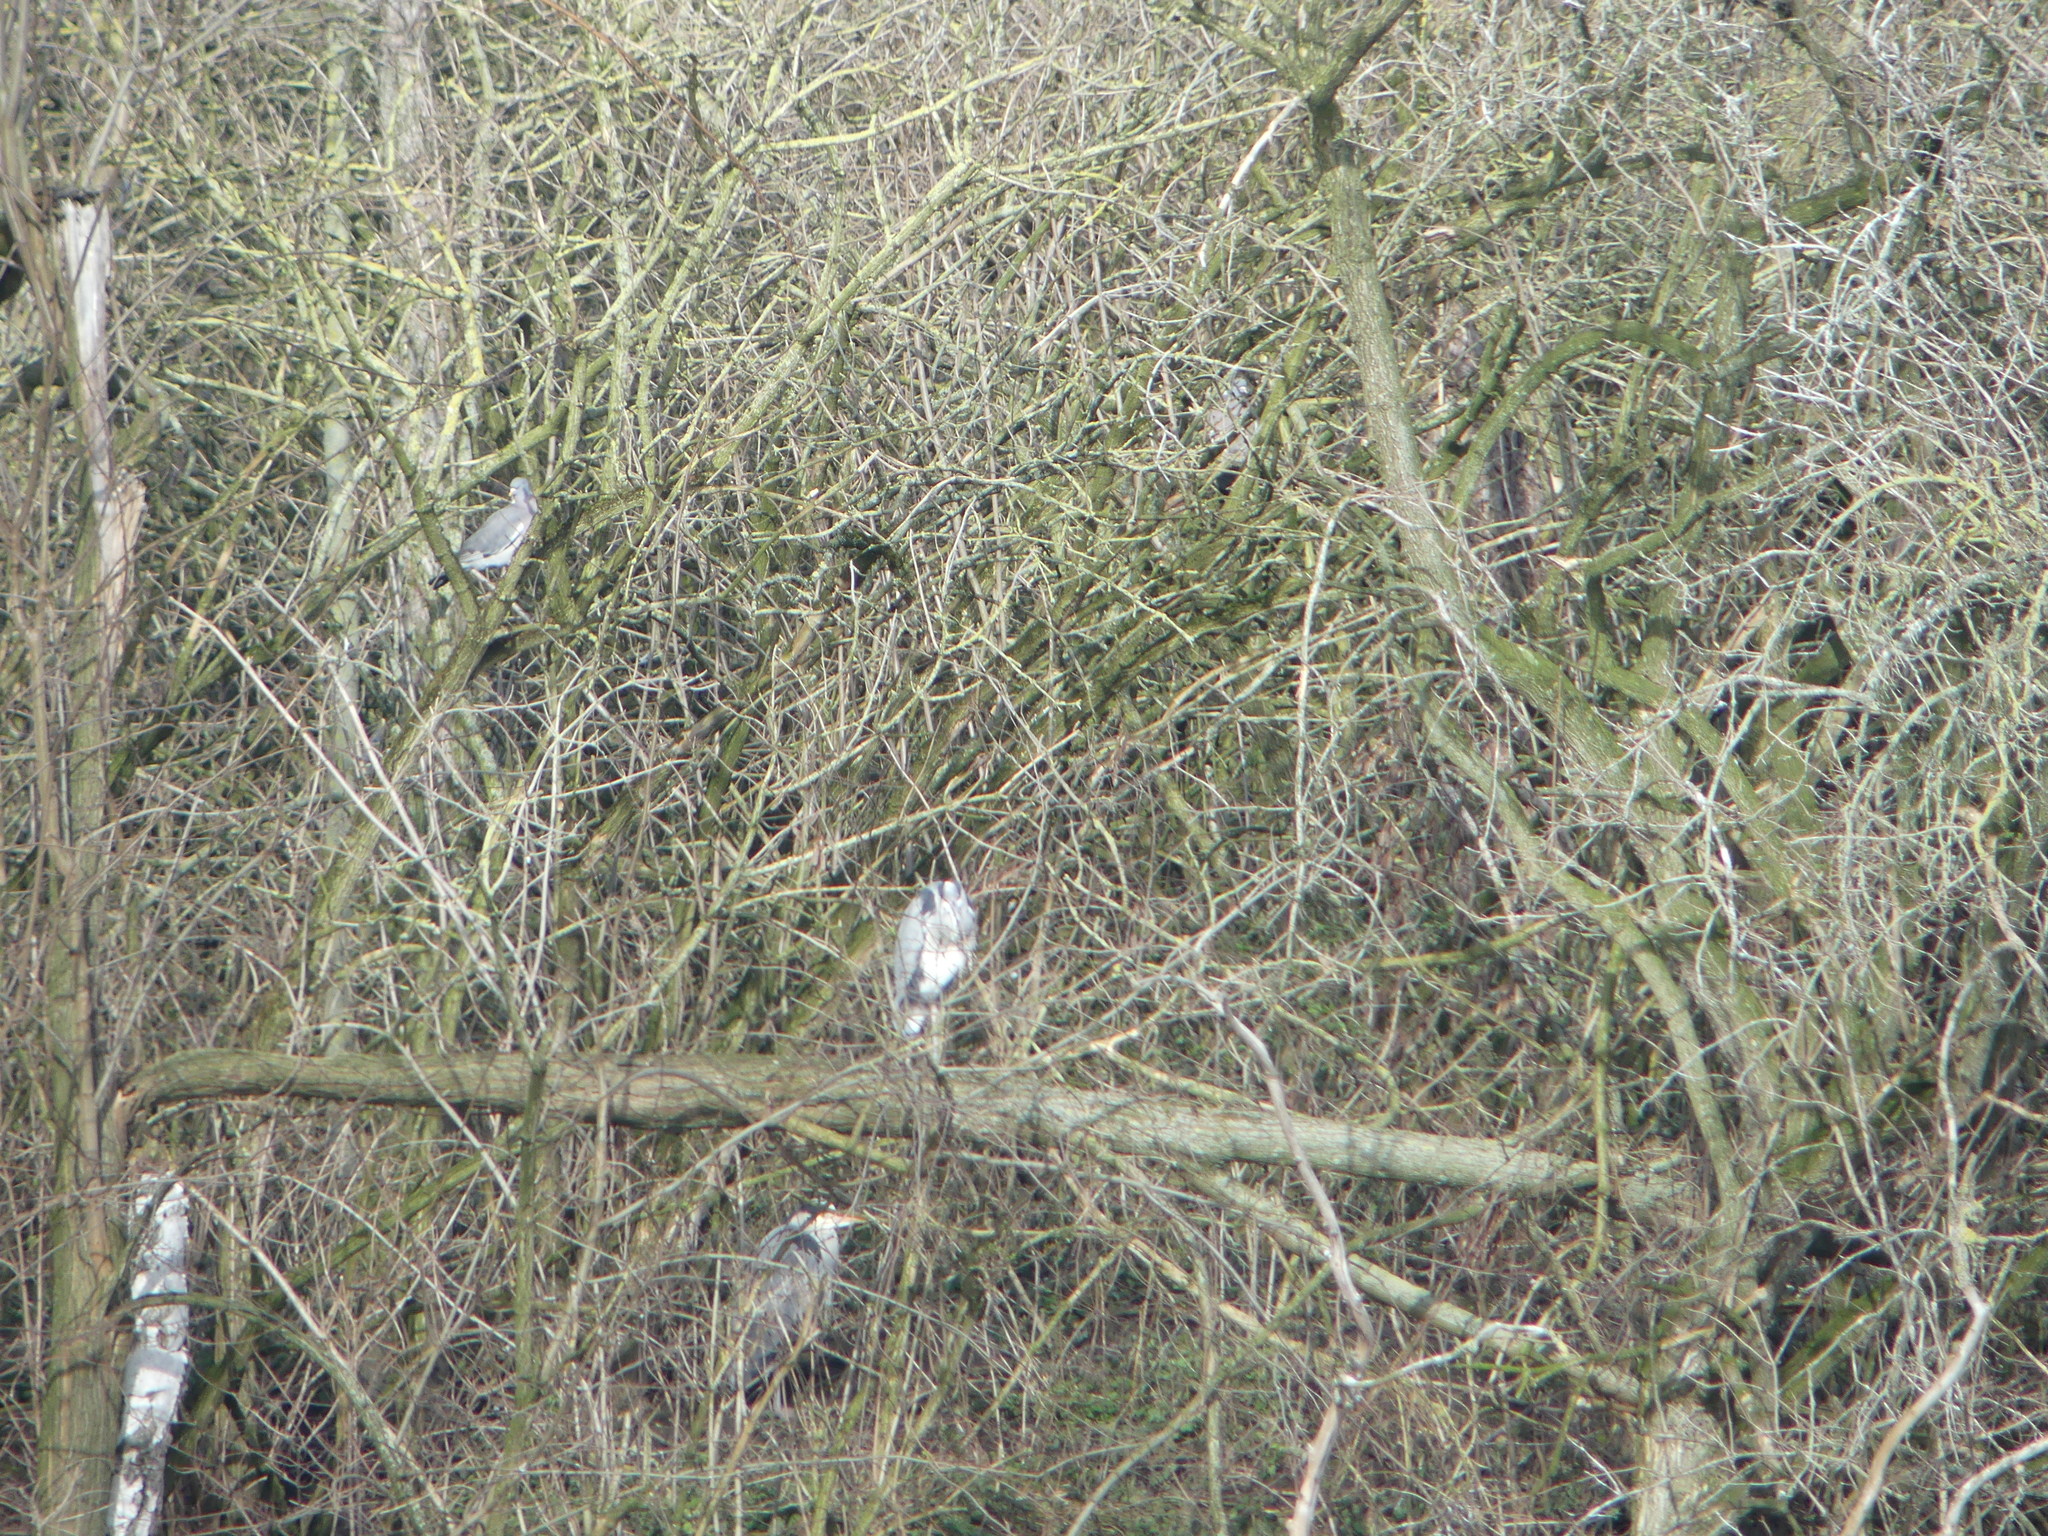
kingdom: Animalia
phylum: Chordata
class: Aves
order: Pelecaniformes
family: Ardeidae
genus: Ardea
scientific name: Ardea cinerea
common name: Grey heron
